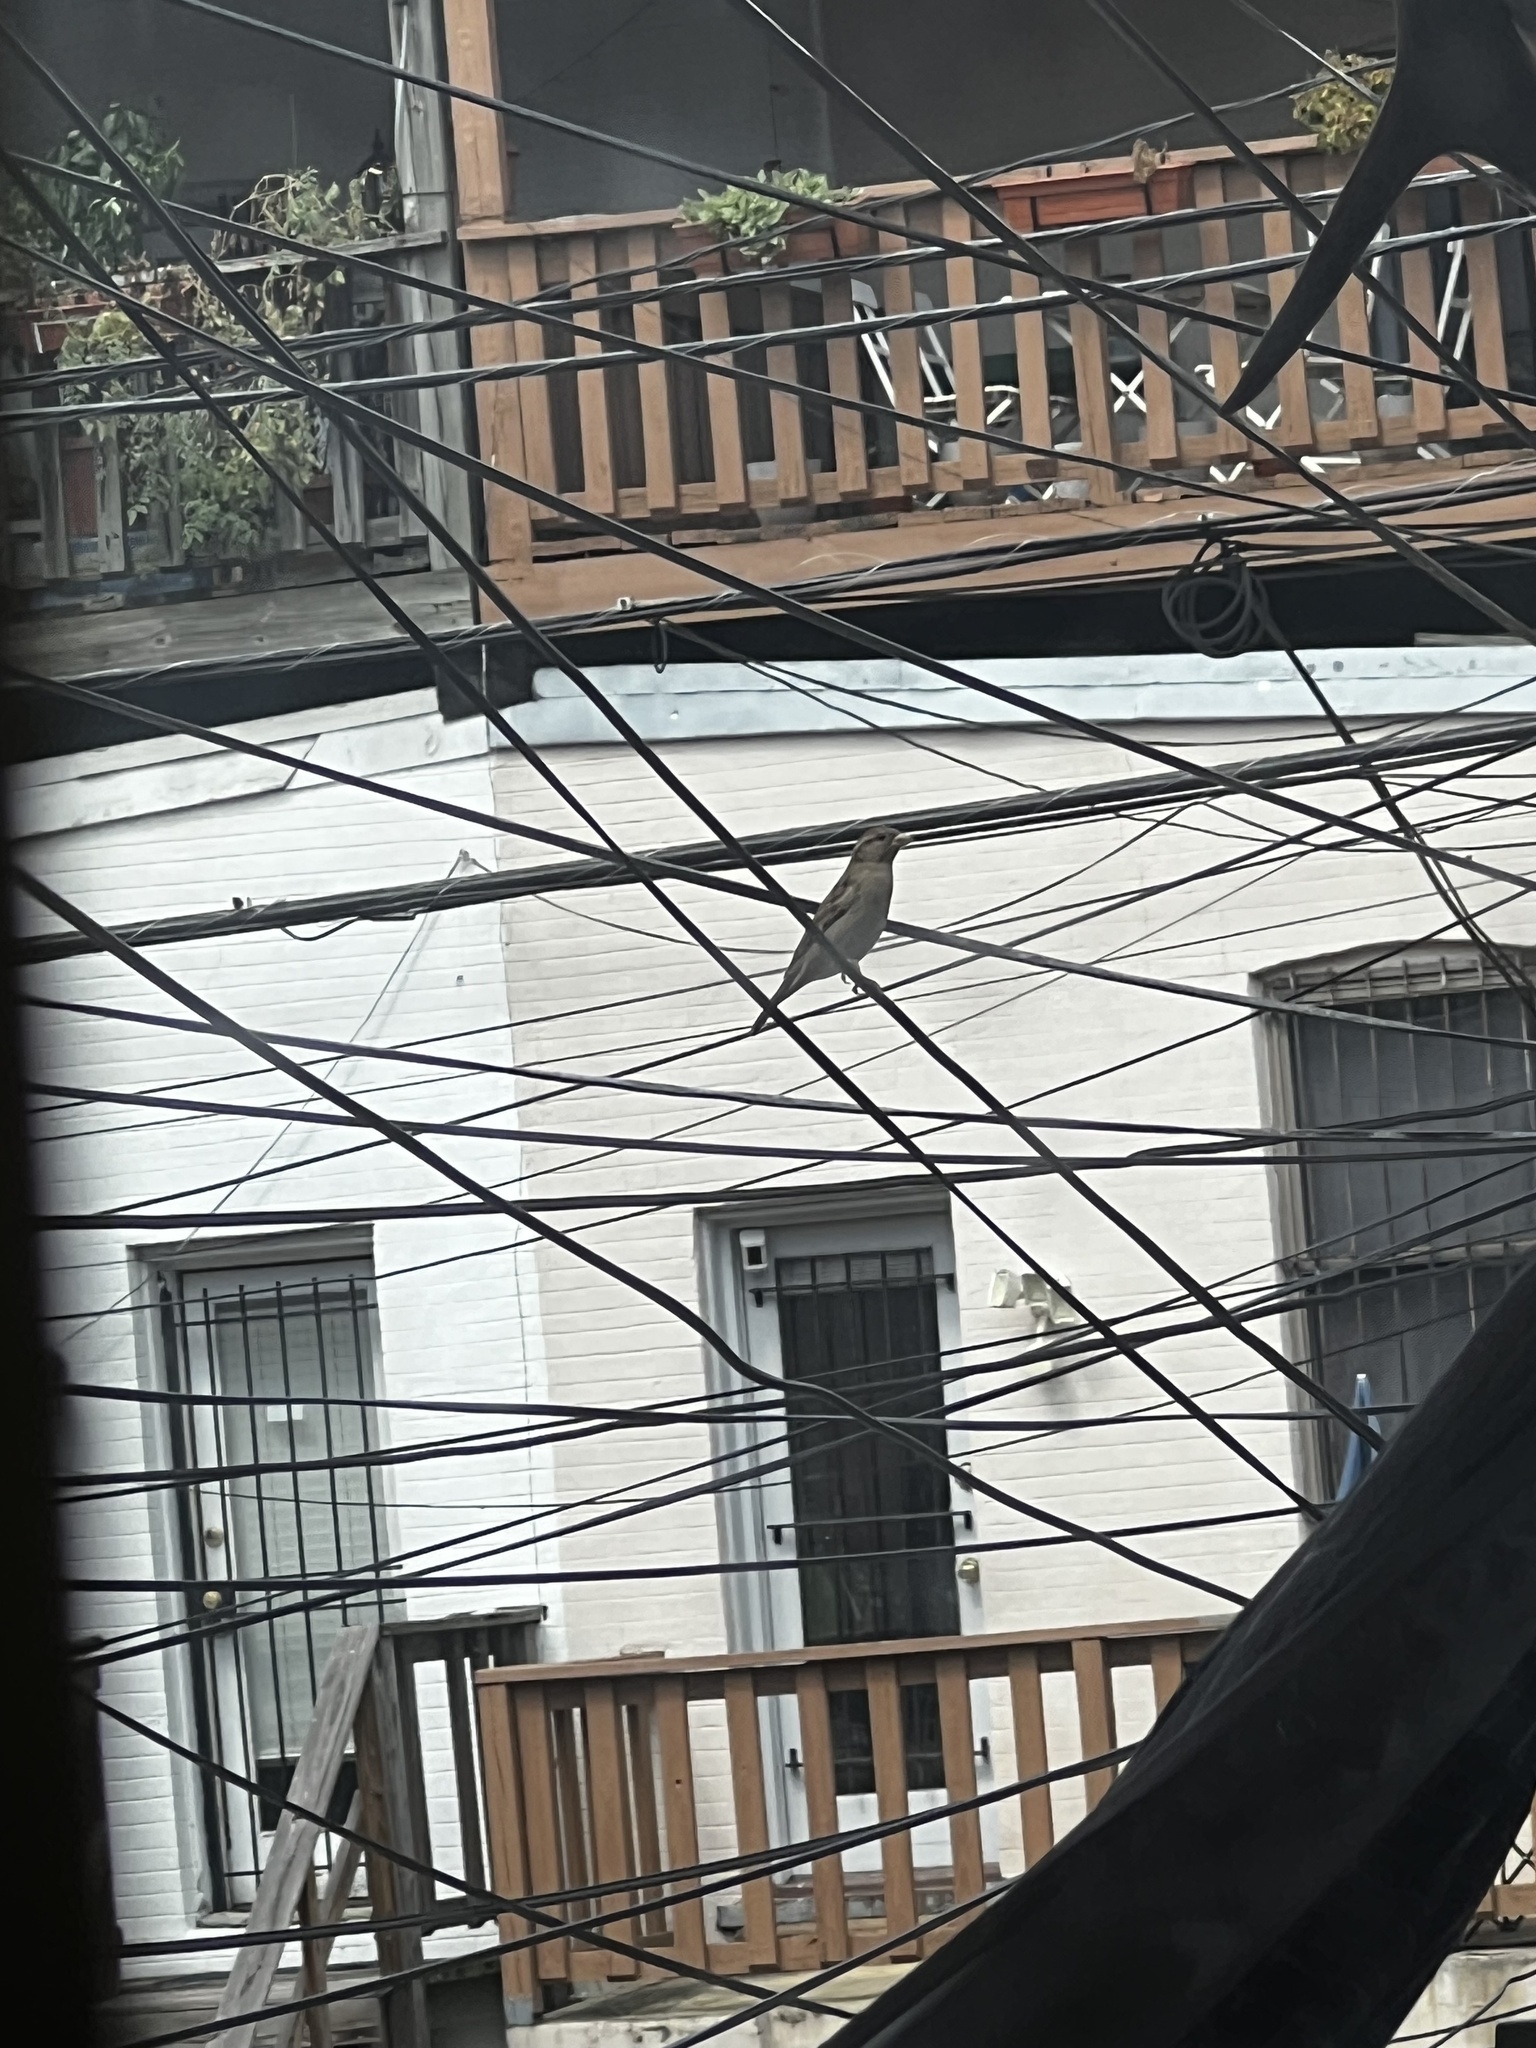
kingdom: Animalia
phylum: Chordata
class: Aves
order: Passeriformes
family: Passeridae
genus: Passer
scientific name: Passer domesticus
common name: House sparrow
